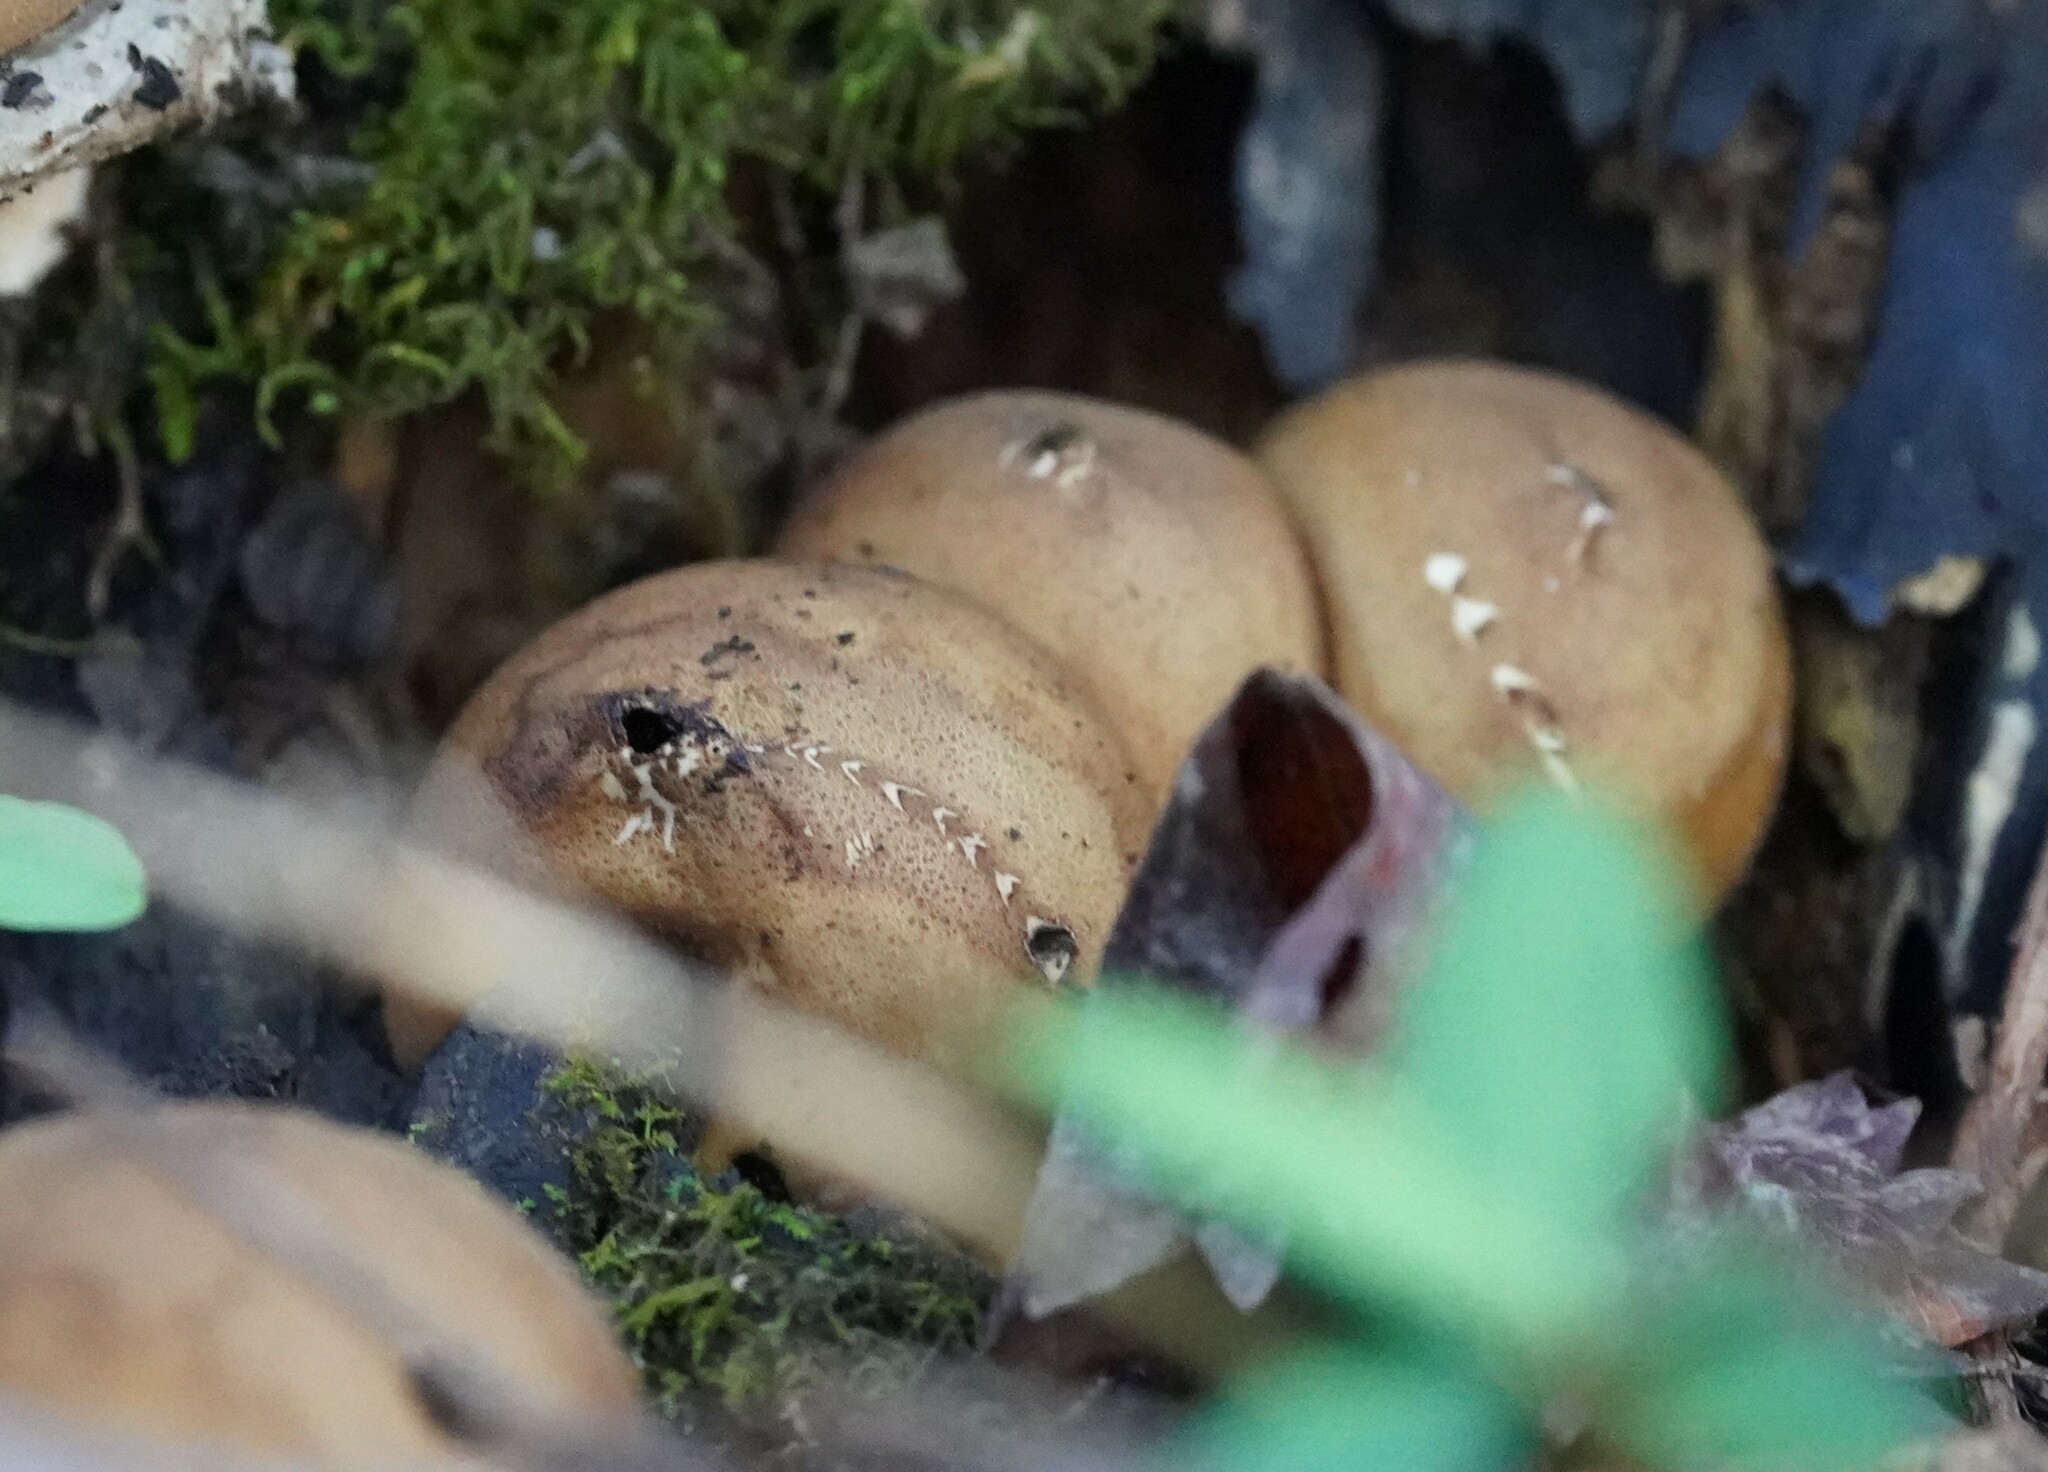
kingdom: Fungi
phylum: Basidiomycota
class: Agaricomycetes
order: Agaricales
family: Lycoperdaceae
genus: Apioperdon
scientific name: Apioperdon pyriforme
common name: Pear-shaped puffball
